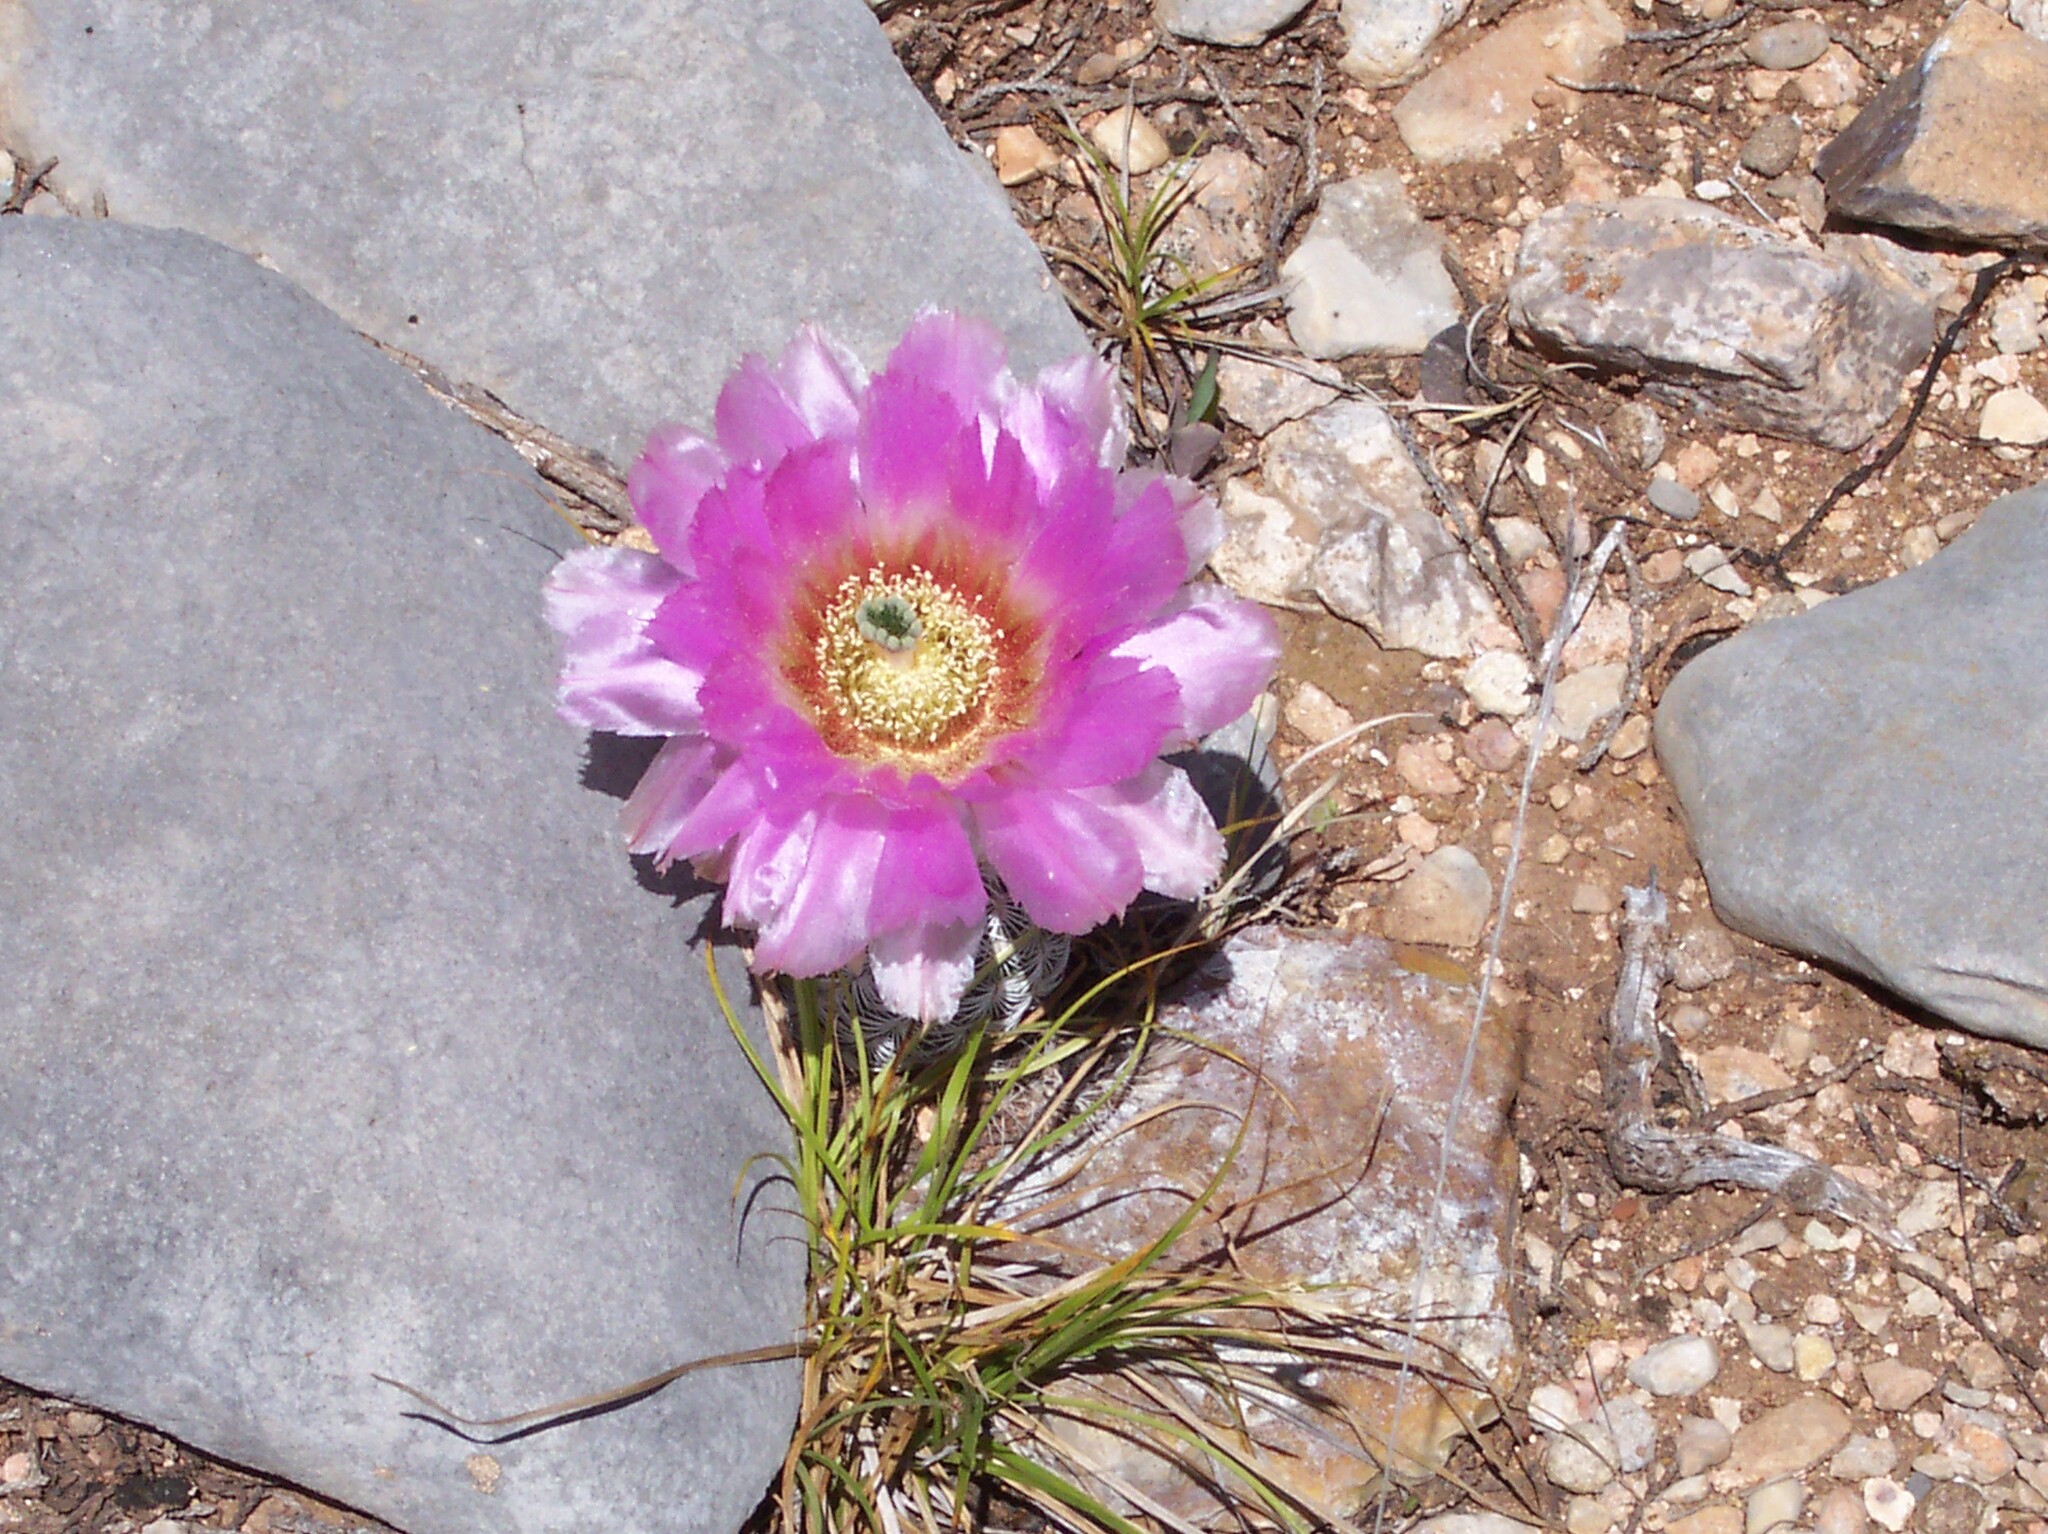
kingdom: Plantae
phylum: Tracheophyta
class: Magnoliopsida
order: Caryophyllales
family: Cactaceae
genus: Echinocereus
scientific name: Echinocereus reichenbachii
